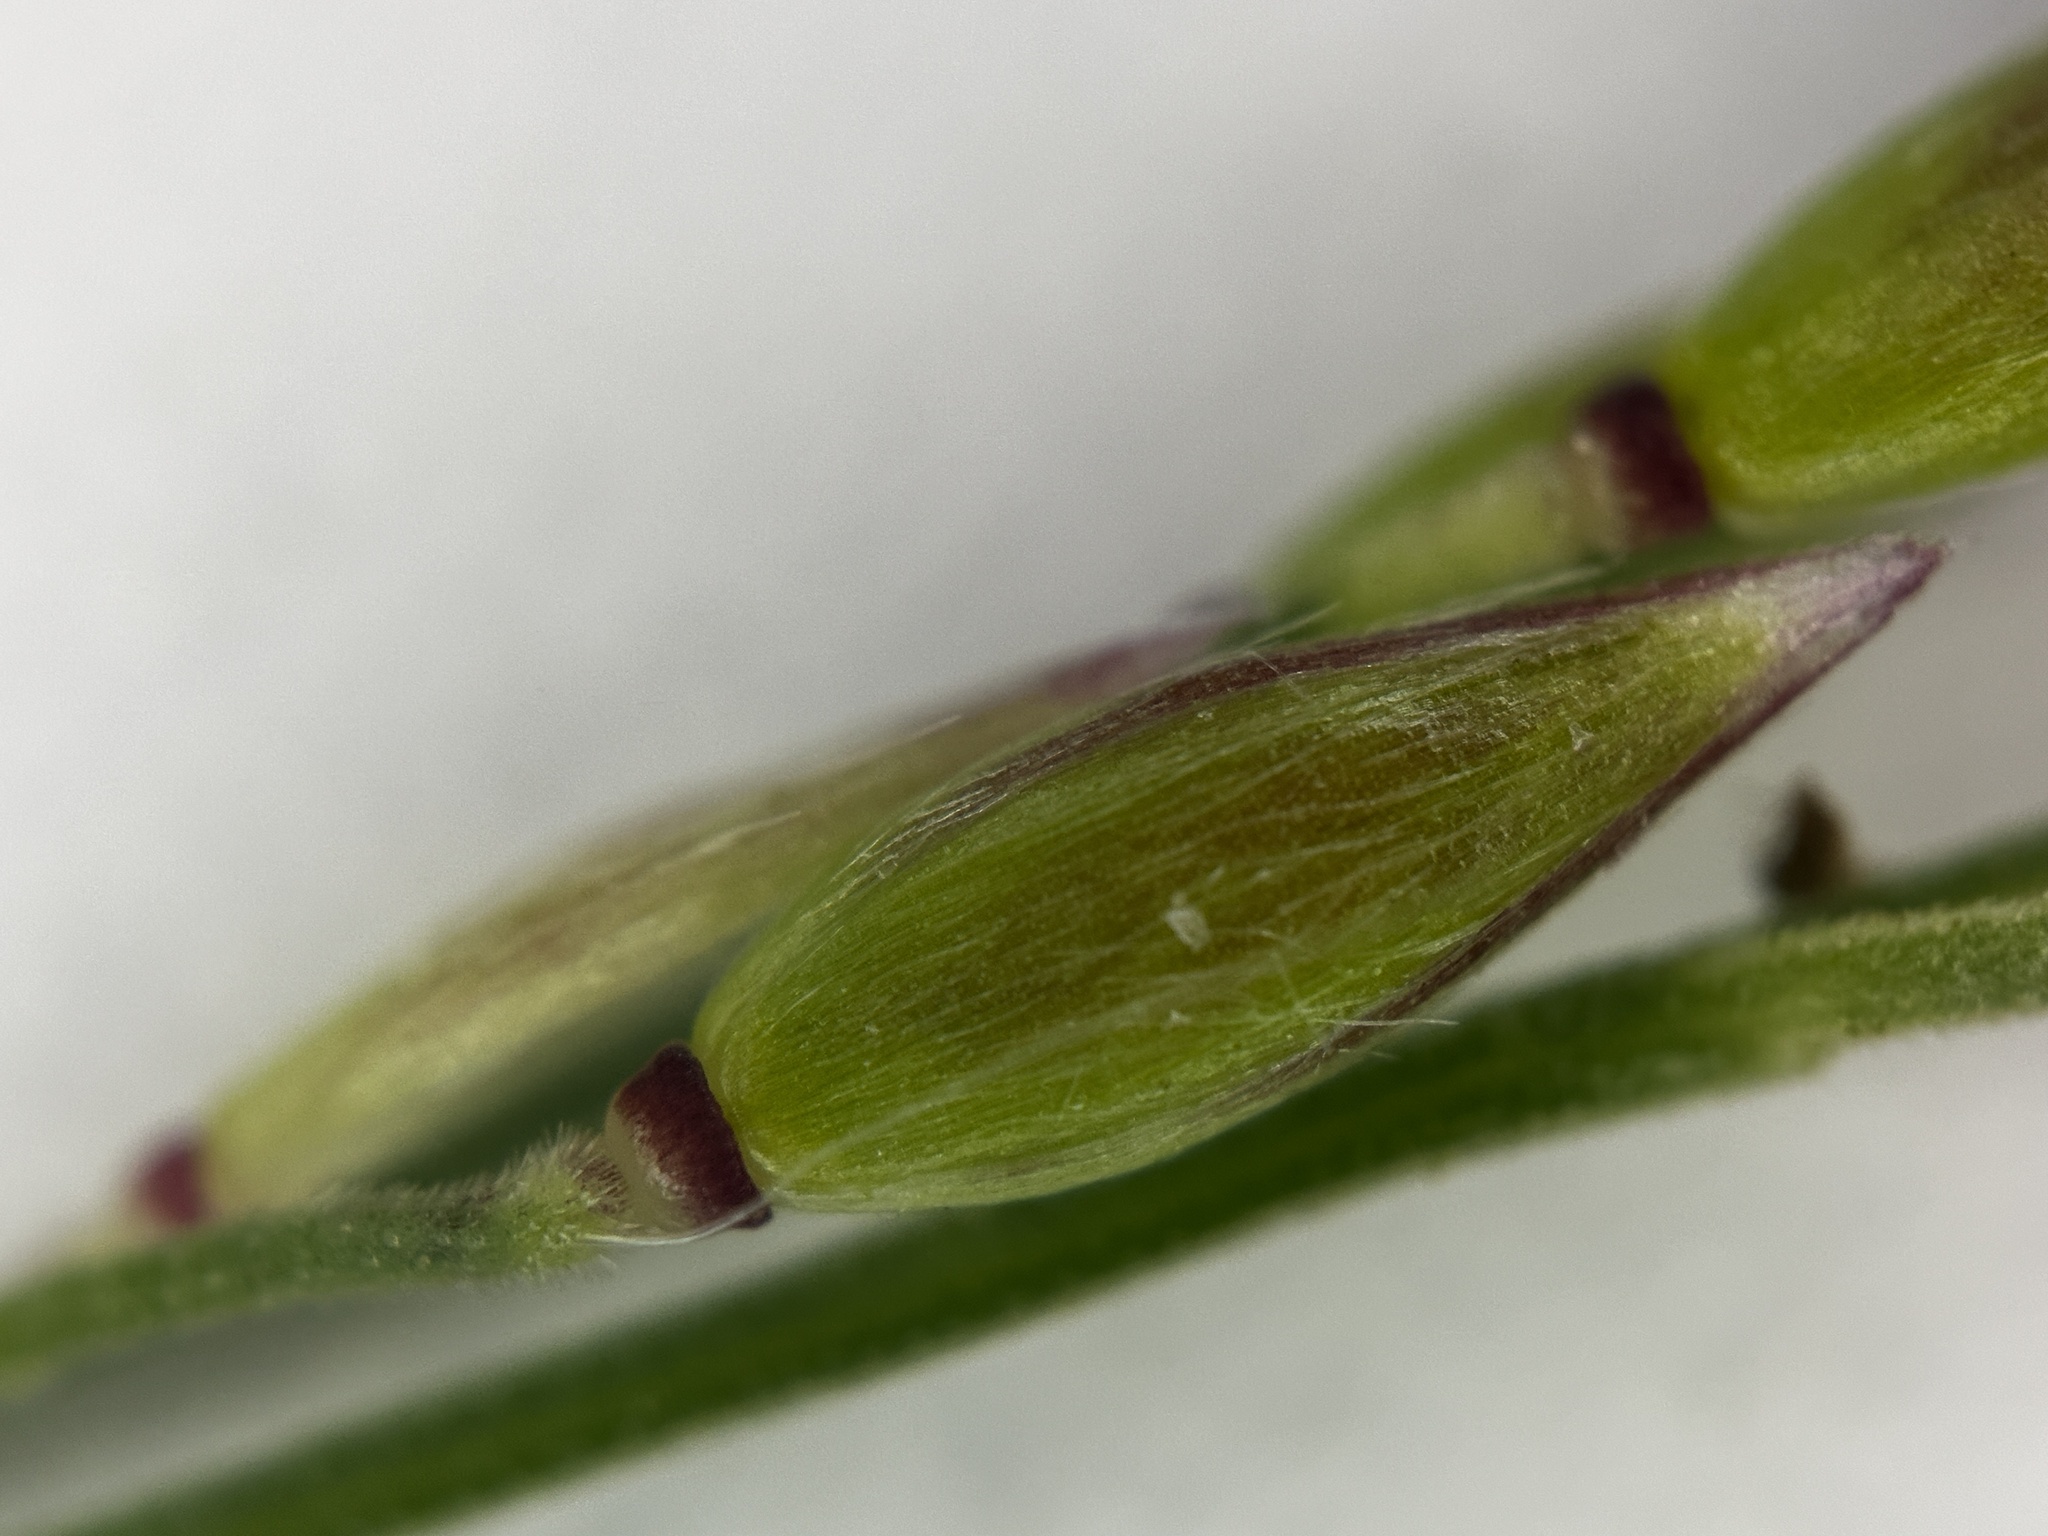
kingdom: Plantae
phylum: Tracheophyta
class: Liliopsida
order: Poales
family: Poaceae
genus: Eriochloa
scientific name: Eriochloa procera
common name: Spring grass
